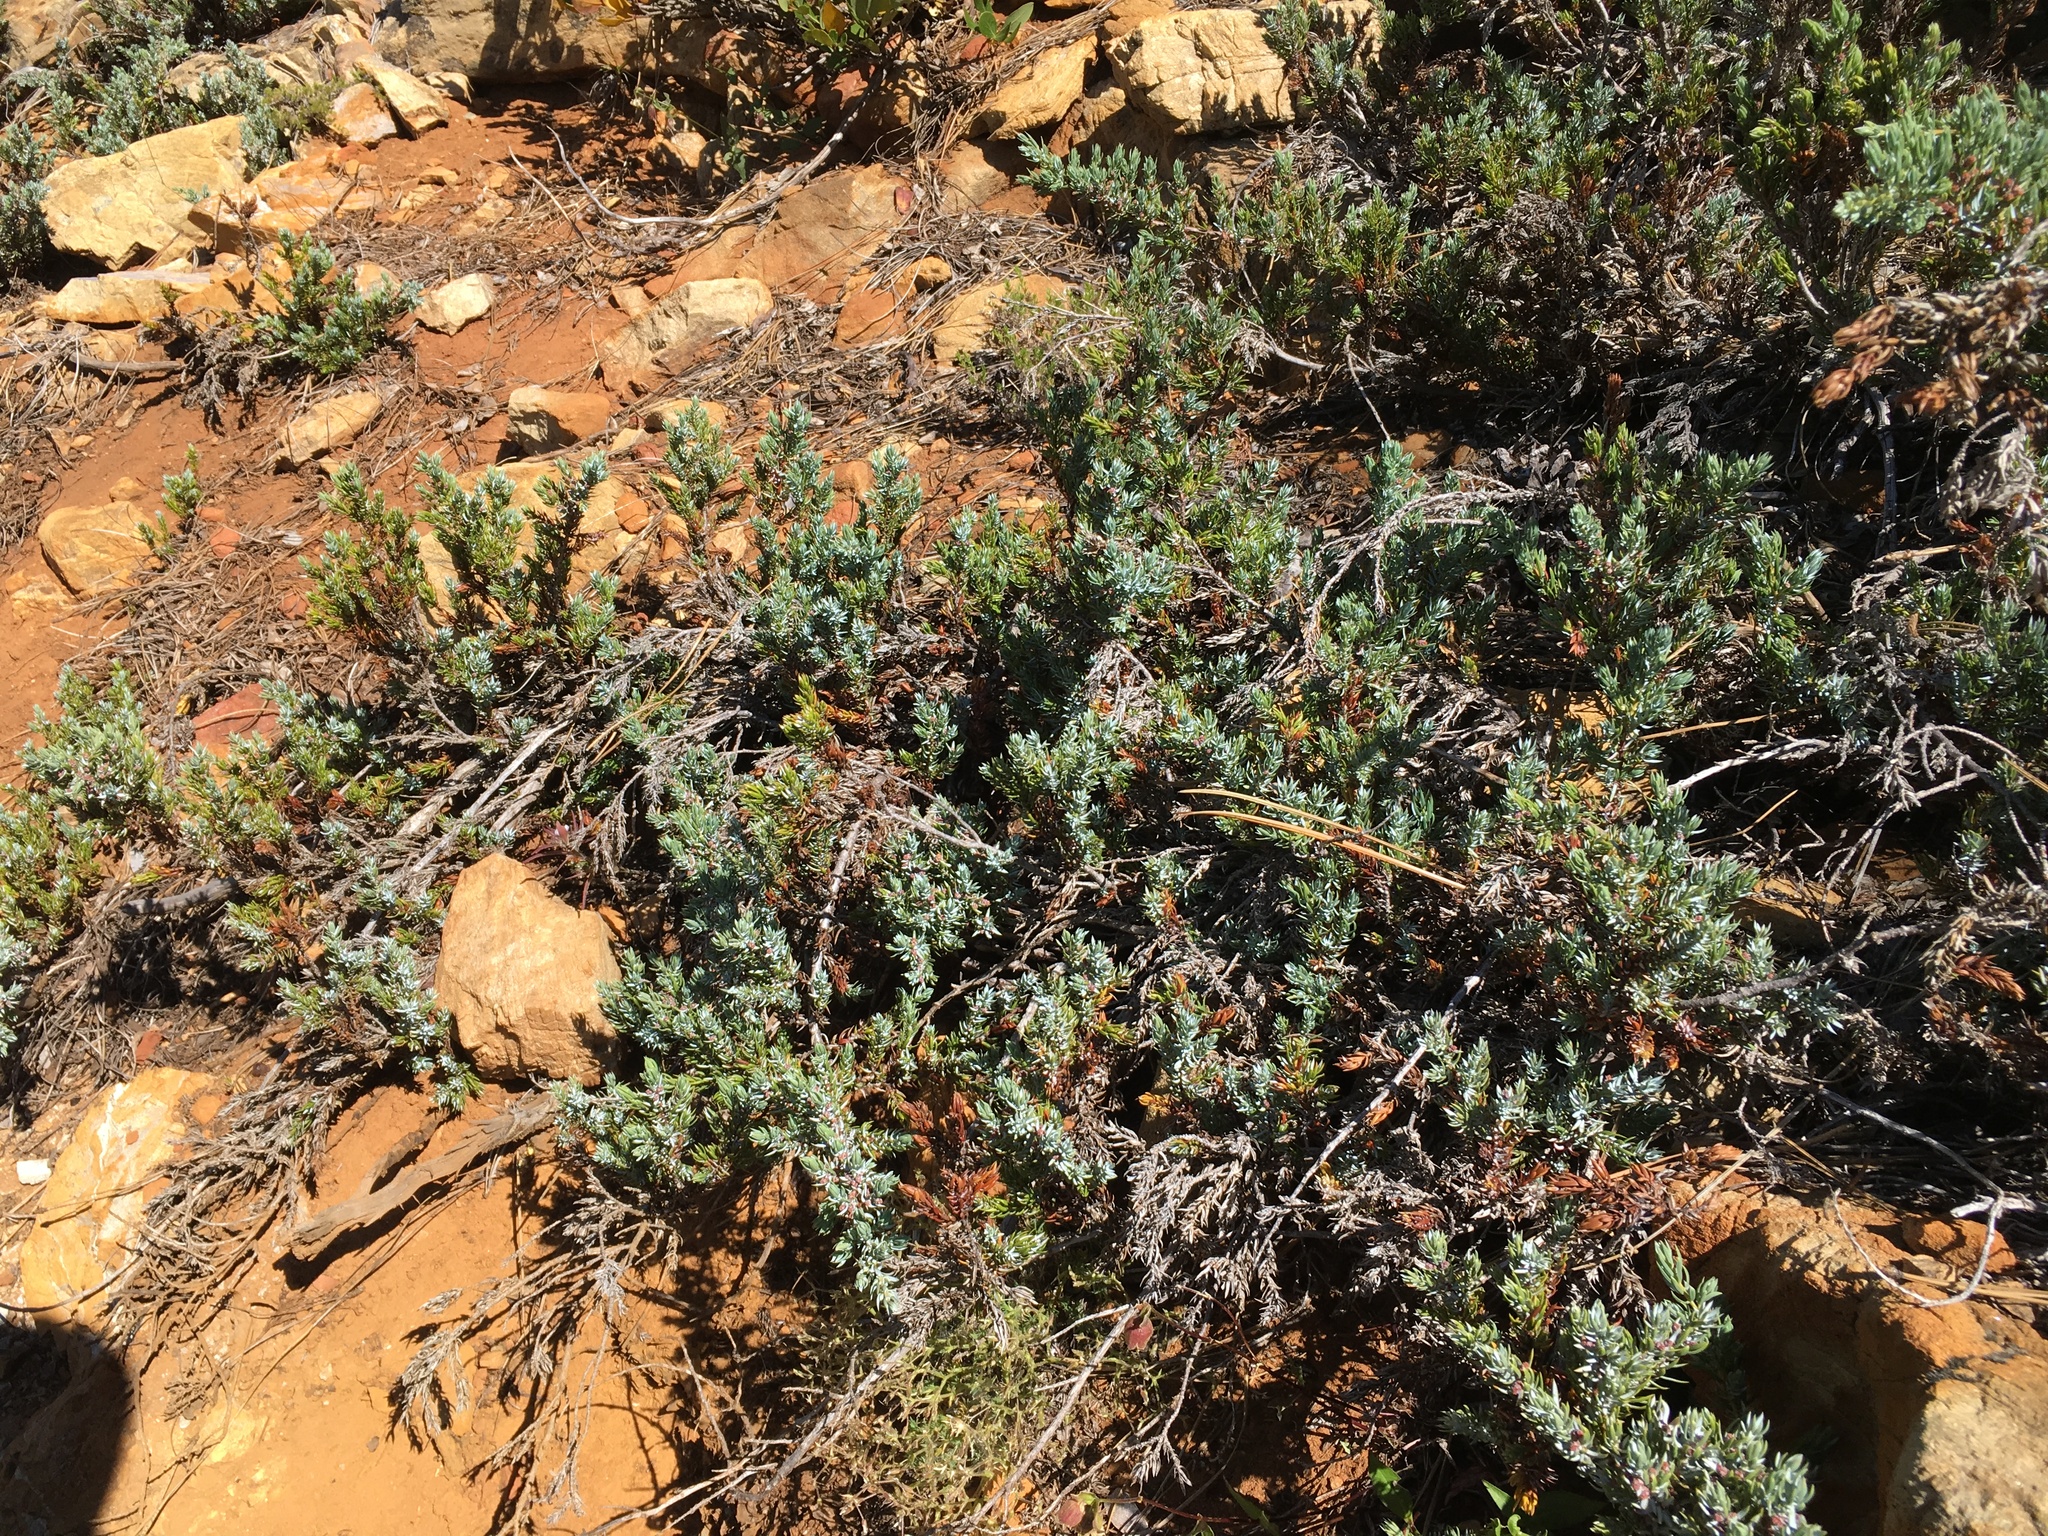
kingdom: Plantae
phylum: Tracheophyta
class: Pinopsida
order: Pinales
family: Cupressaceae
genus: Juniperus
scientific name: Juniperus communis
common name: Common juniper
